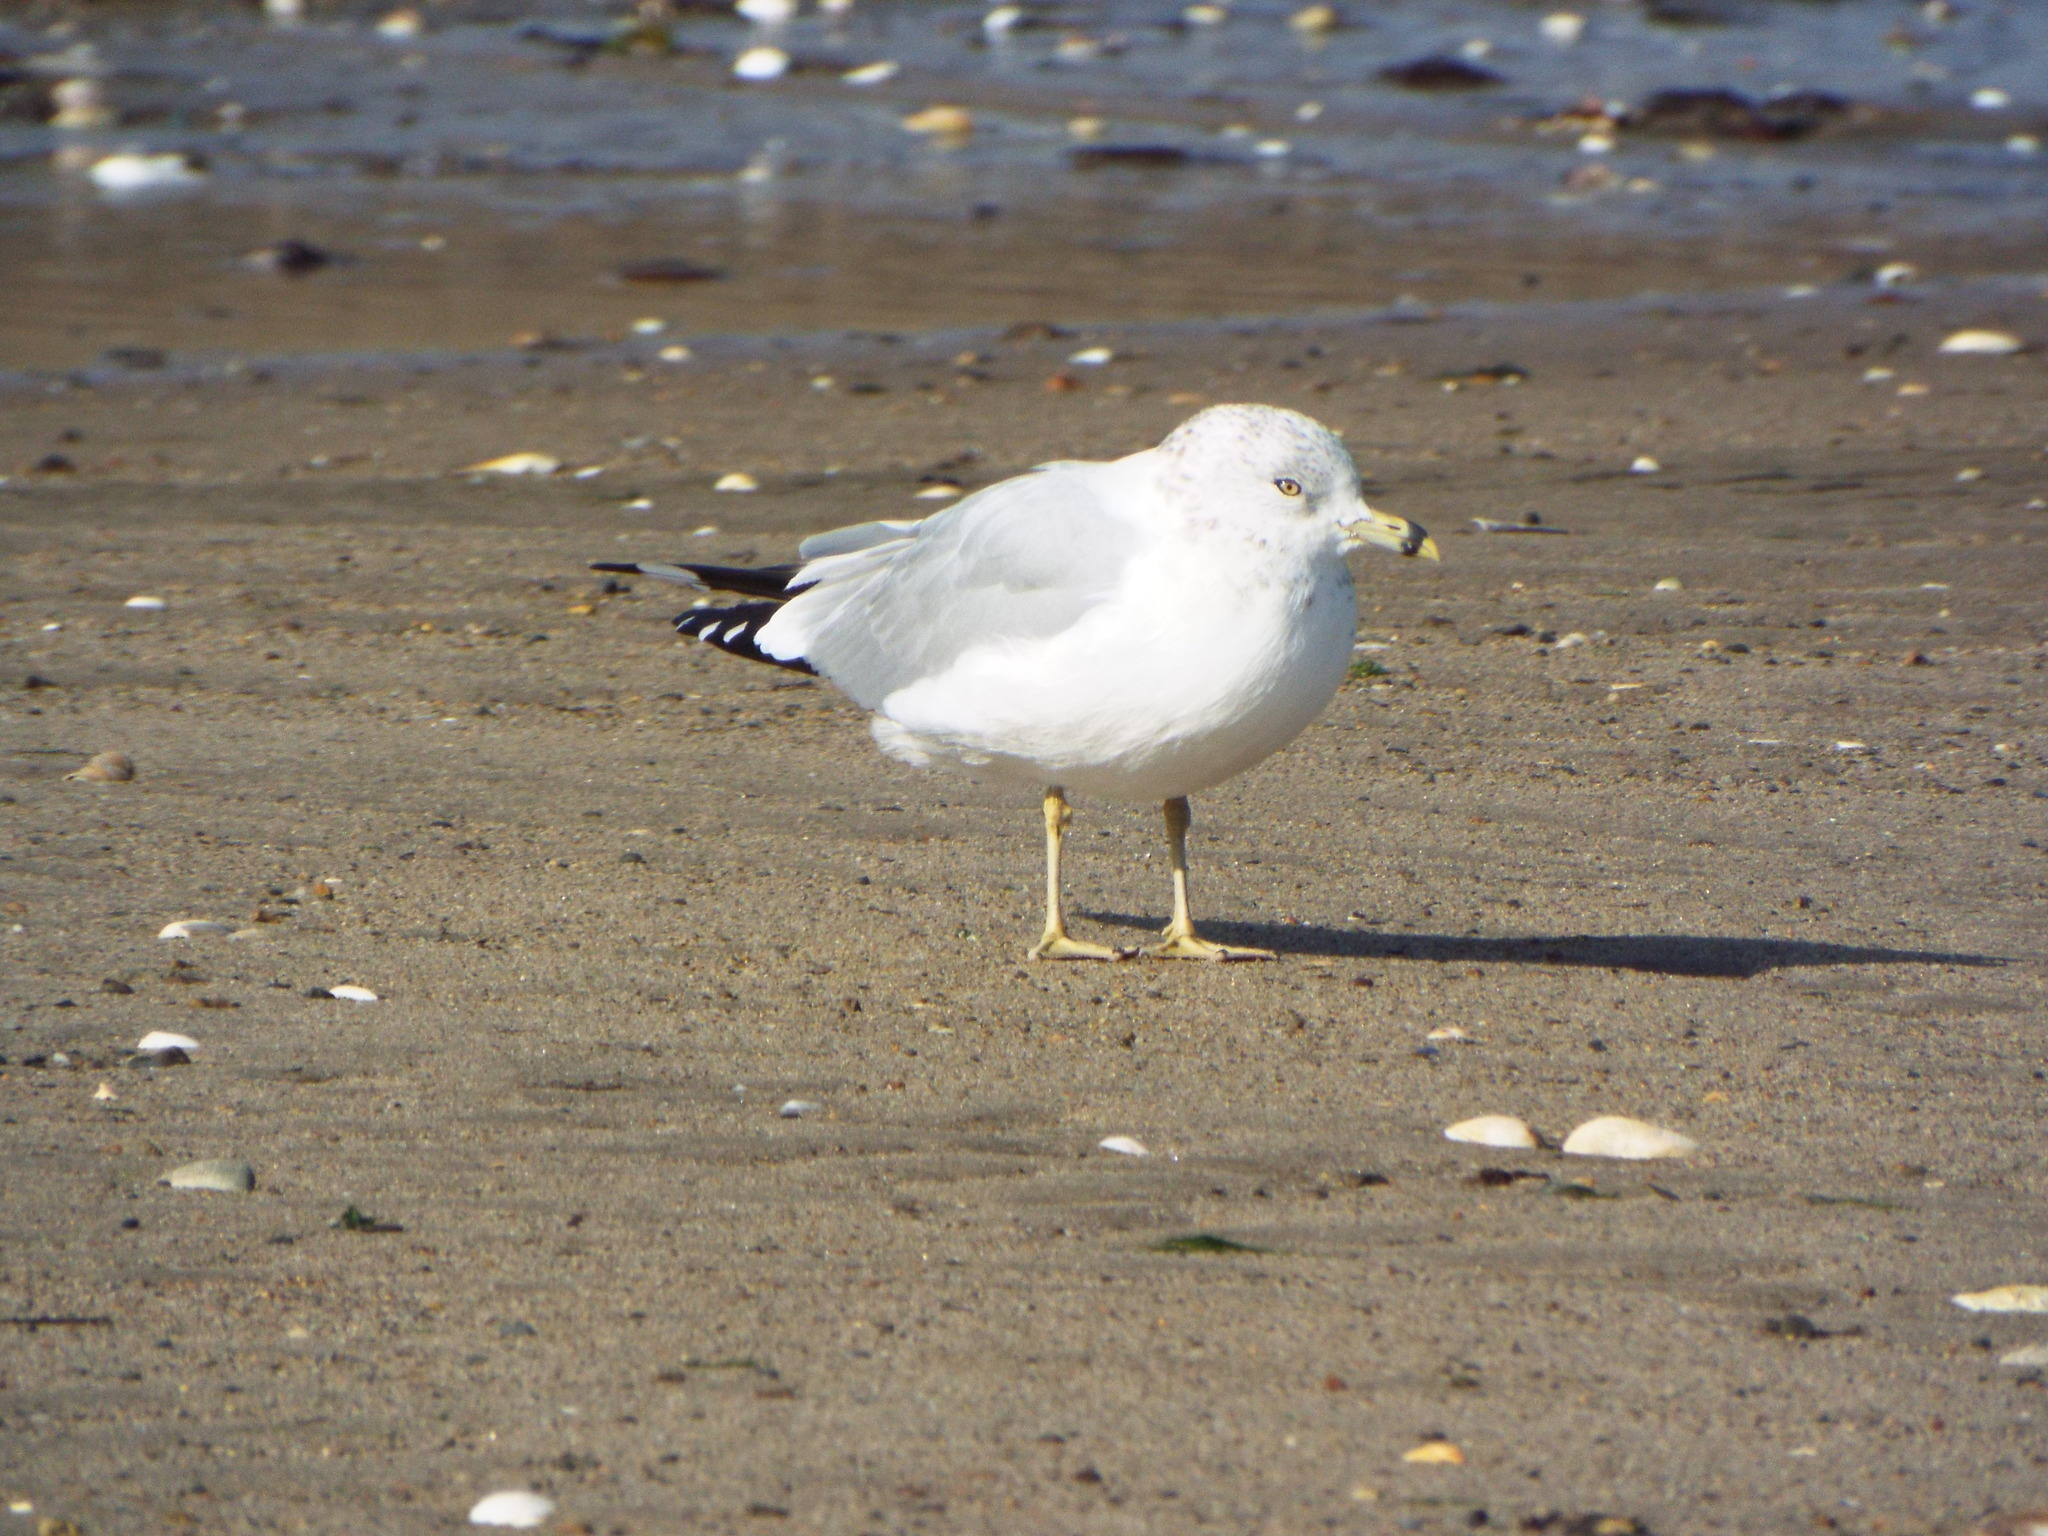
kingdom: Animalia
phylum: Chordata
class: Aves
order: Charadriiformes
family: Laridae
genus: Larus
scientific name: Larus delawarensis
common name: Ring-billed gull
